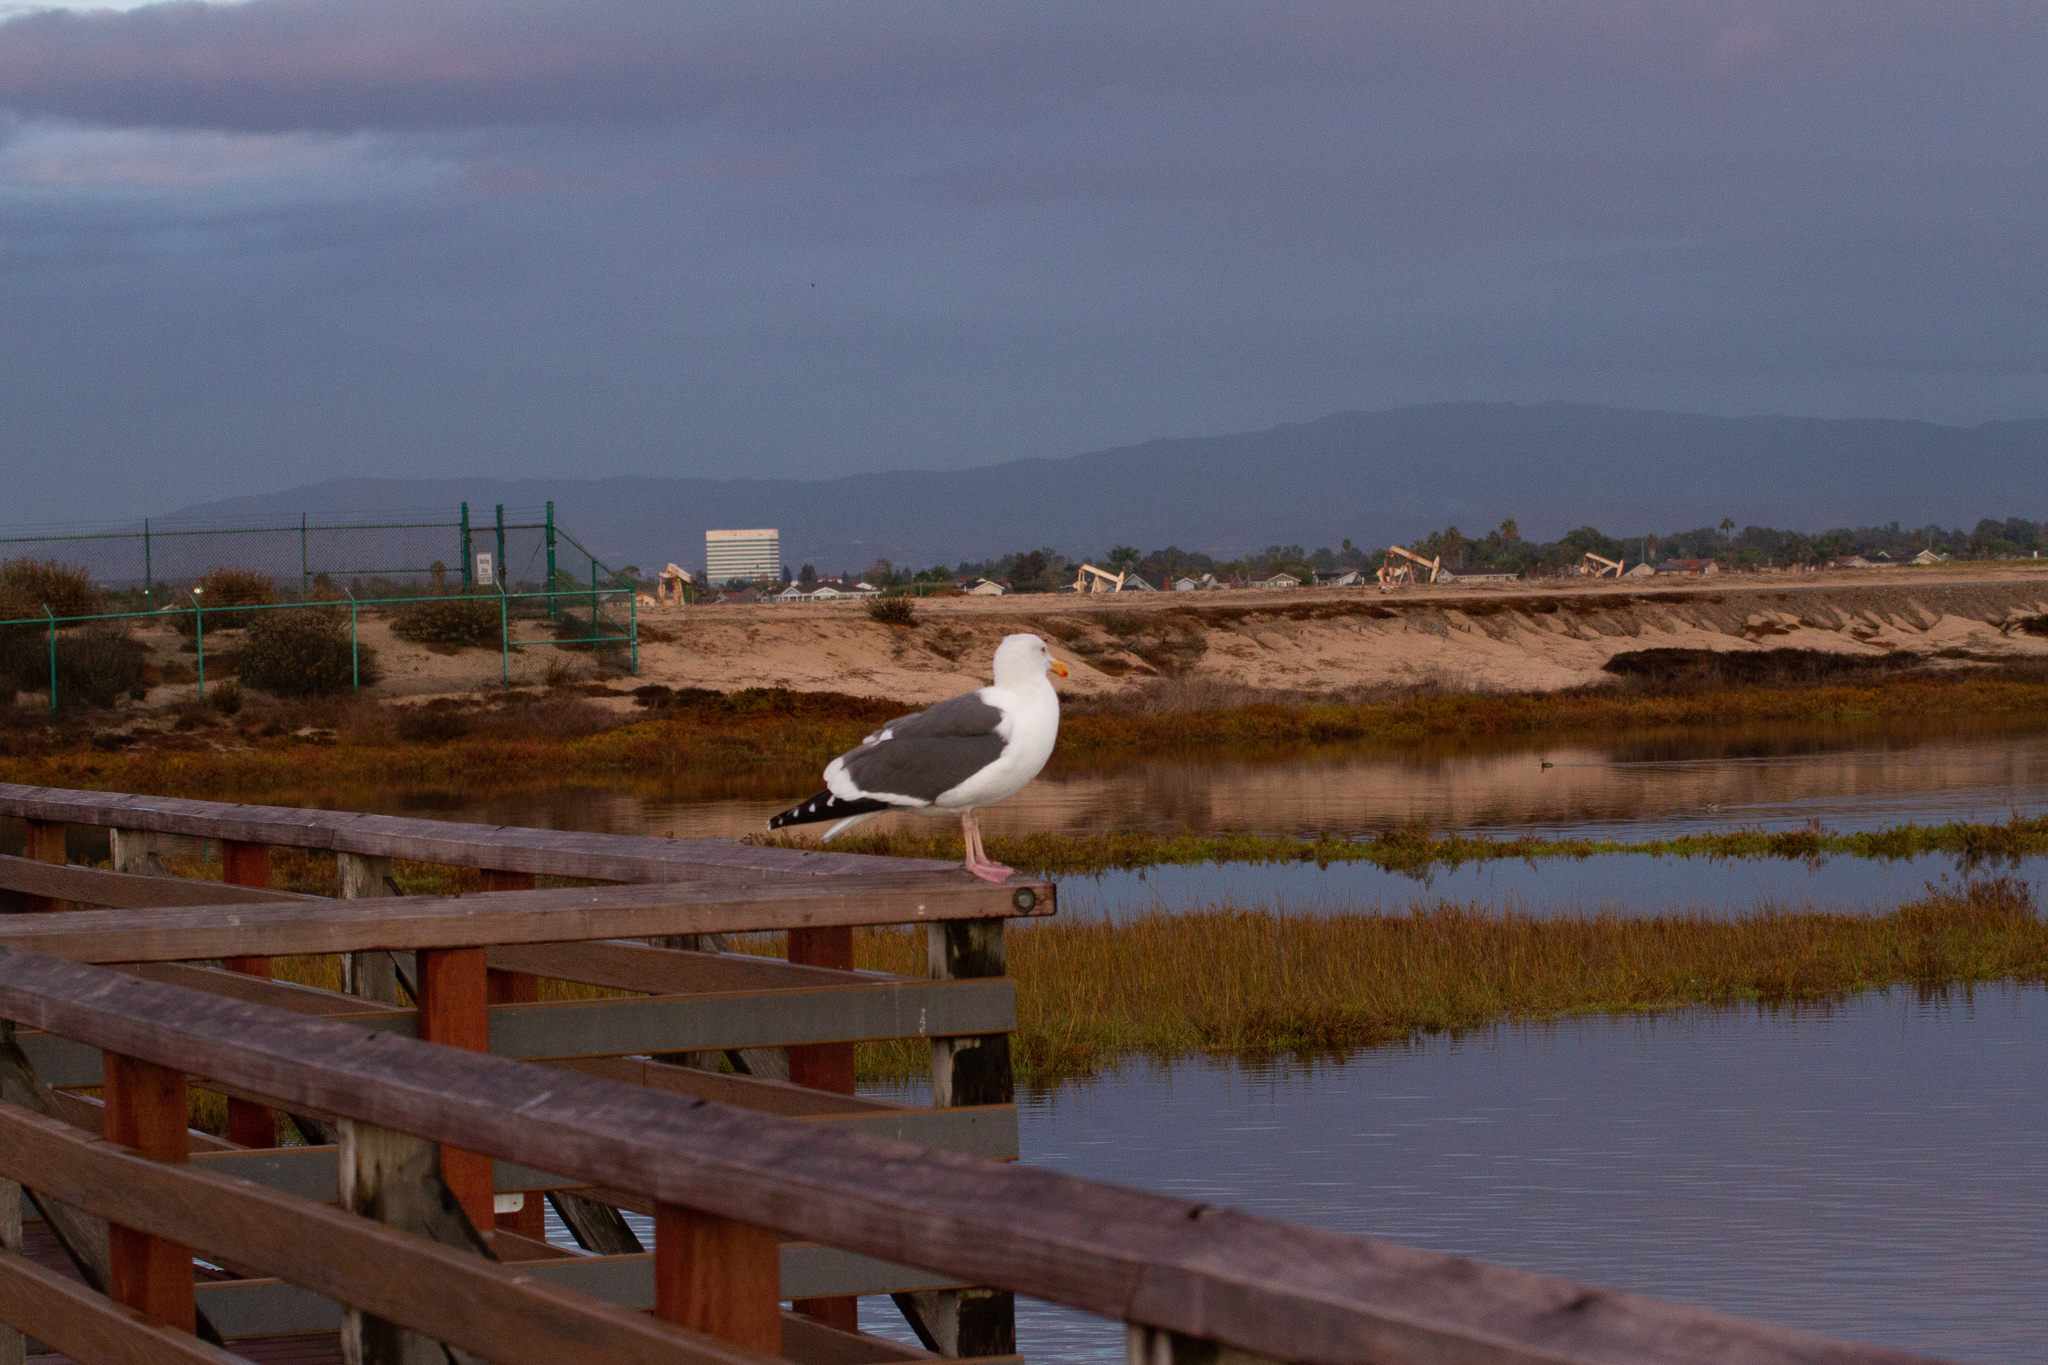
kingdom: Animalia
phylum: Chordata
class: Aves
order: Charadriiformes
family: Laridae
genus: Larus
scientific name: Larus occidentalis
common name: Western gull
